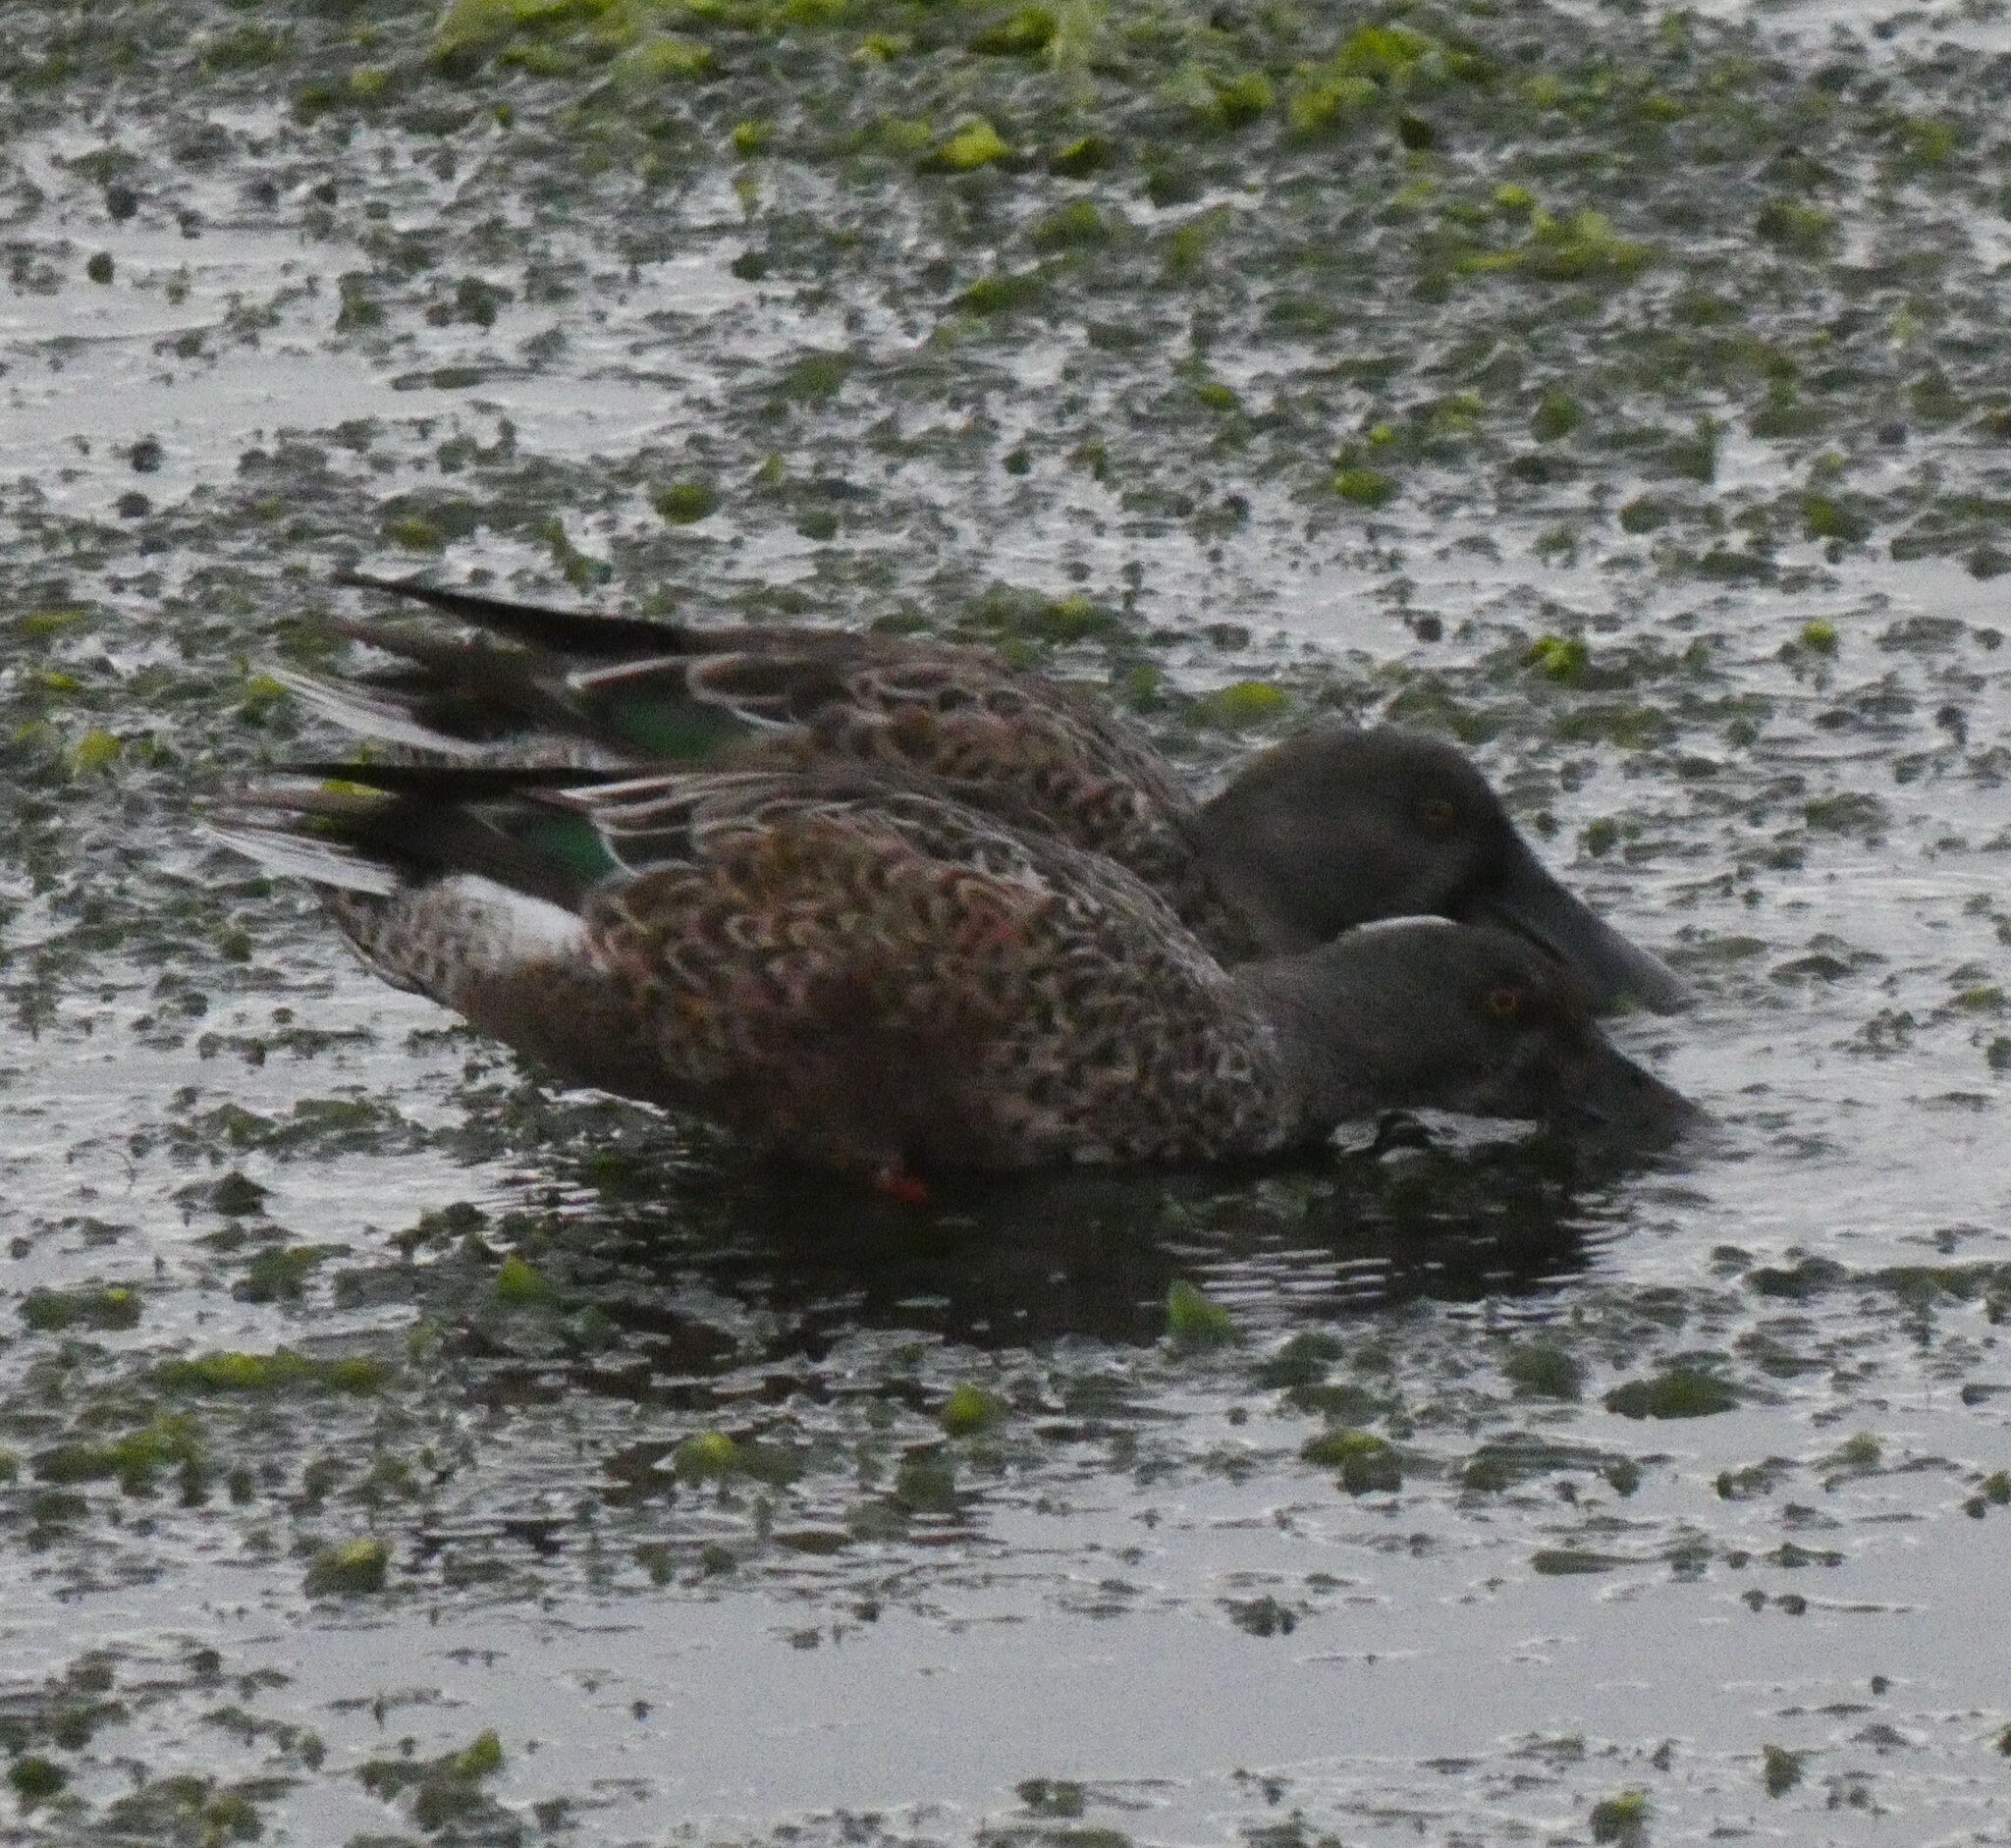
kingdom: Animalia
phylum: Chordata
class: Aves
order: Anseriformes
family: Anatidae
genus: Spatula
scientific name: Spatula clypeata
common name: Northern shoveler
